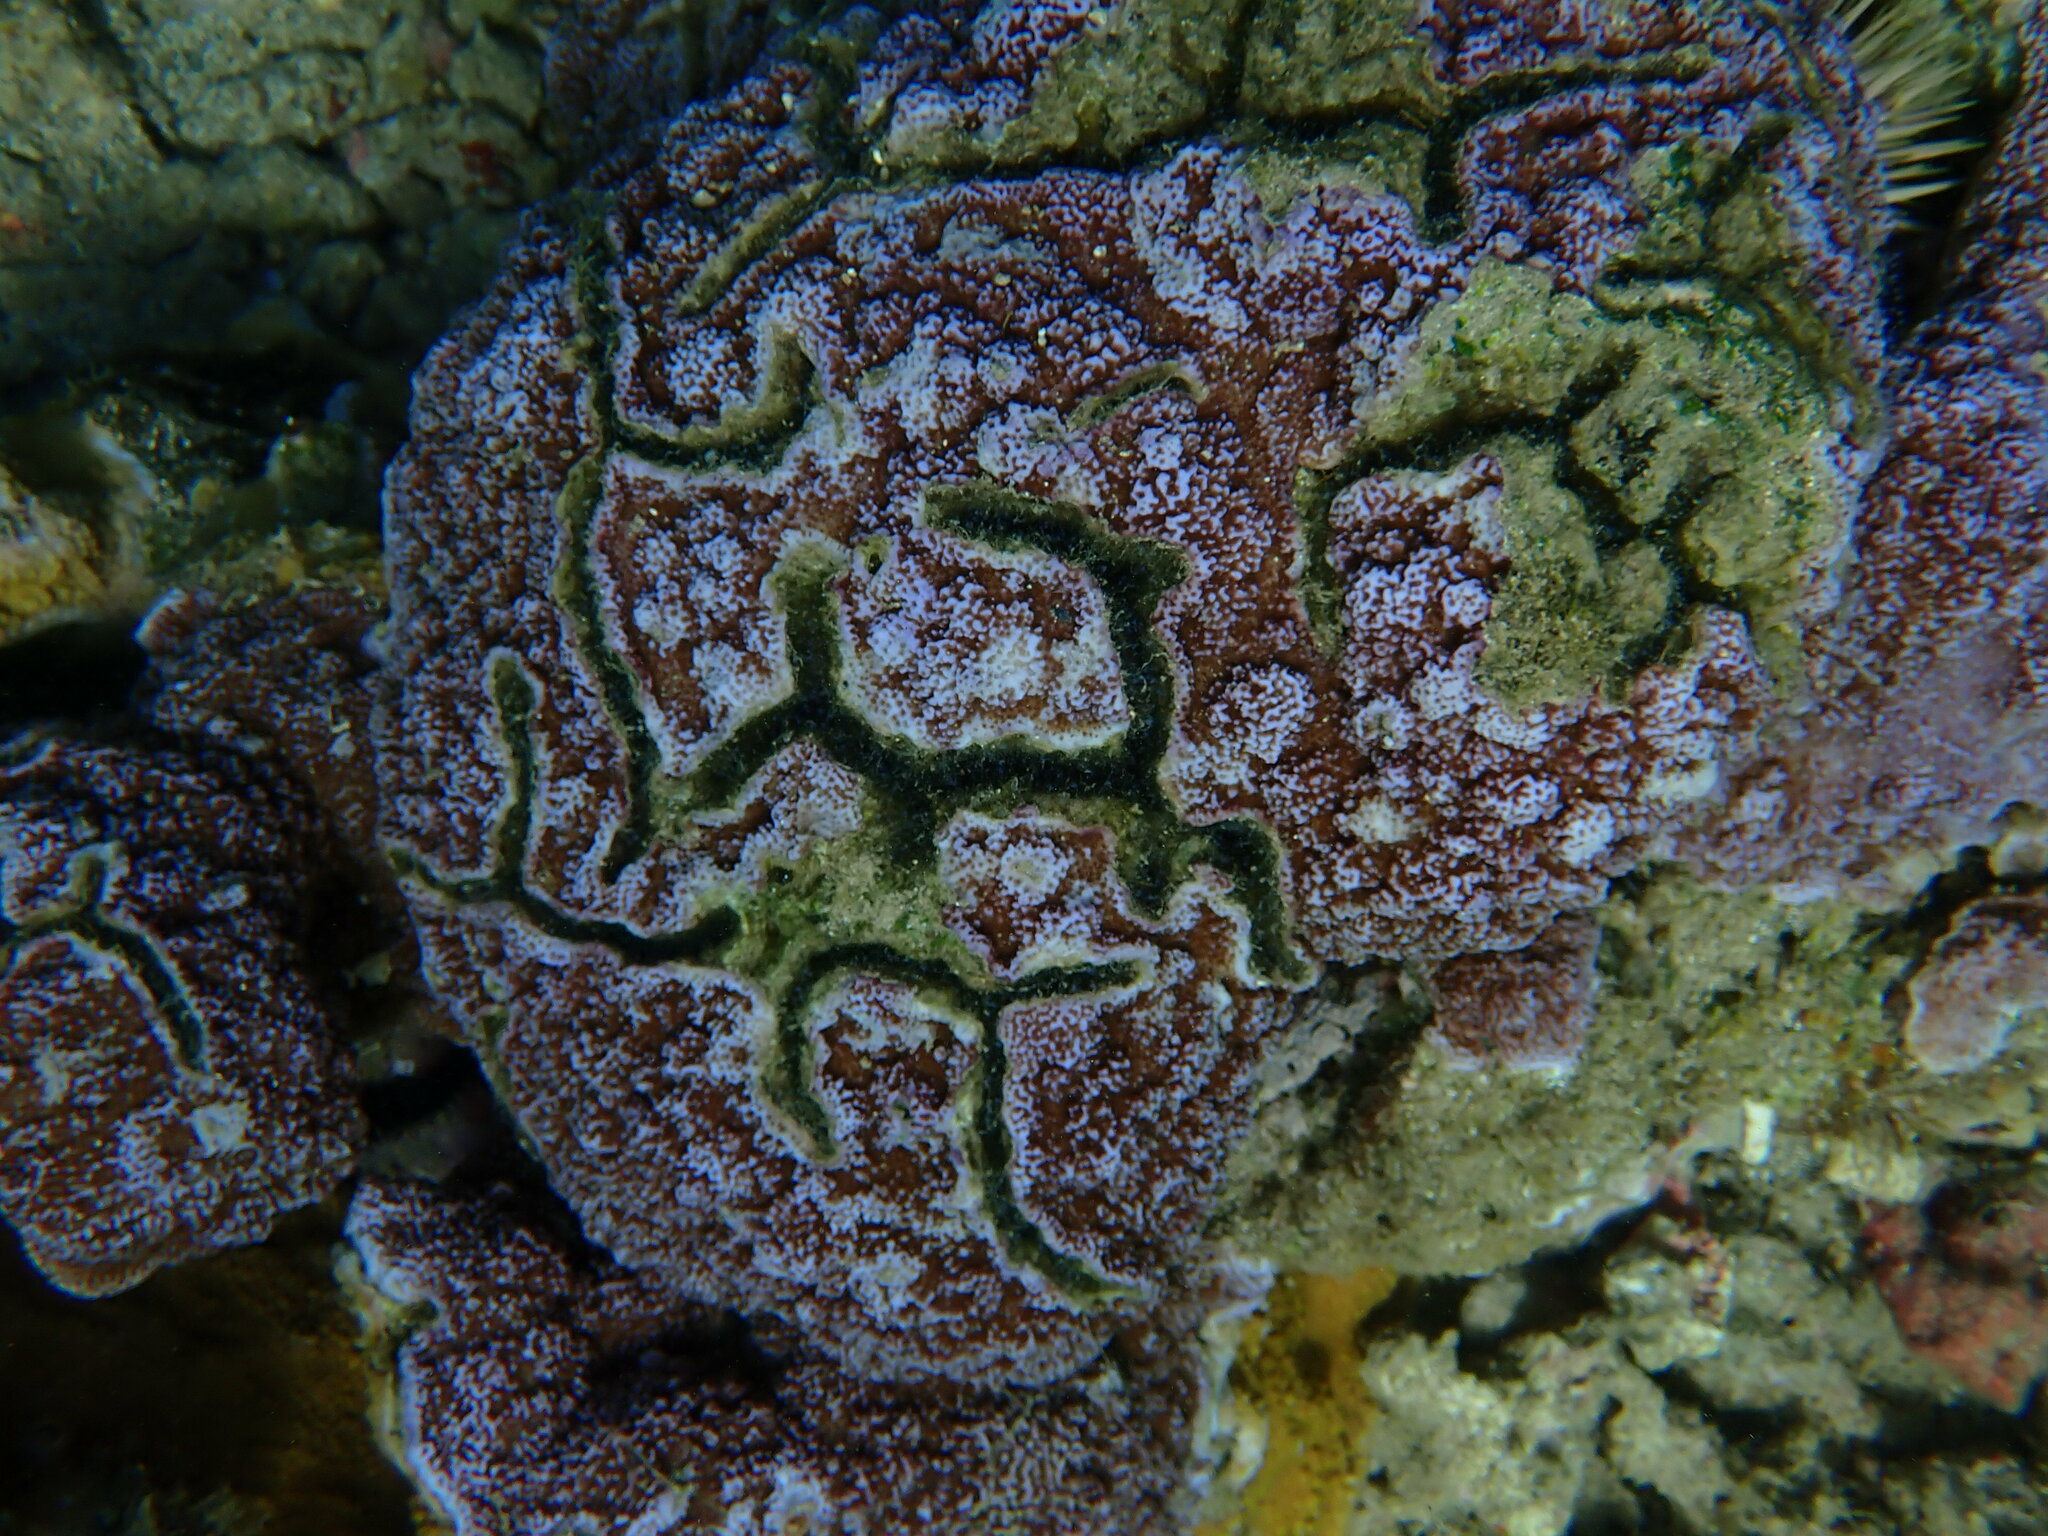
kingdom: Animalia
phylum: Arthropoda
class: Malacostraca
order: Decapoda
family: Alpheidae
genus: Alpheus
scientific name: Alpheus deuteropus
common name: Petroglyph shrimp
